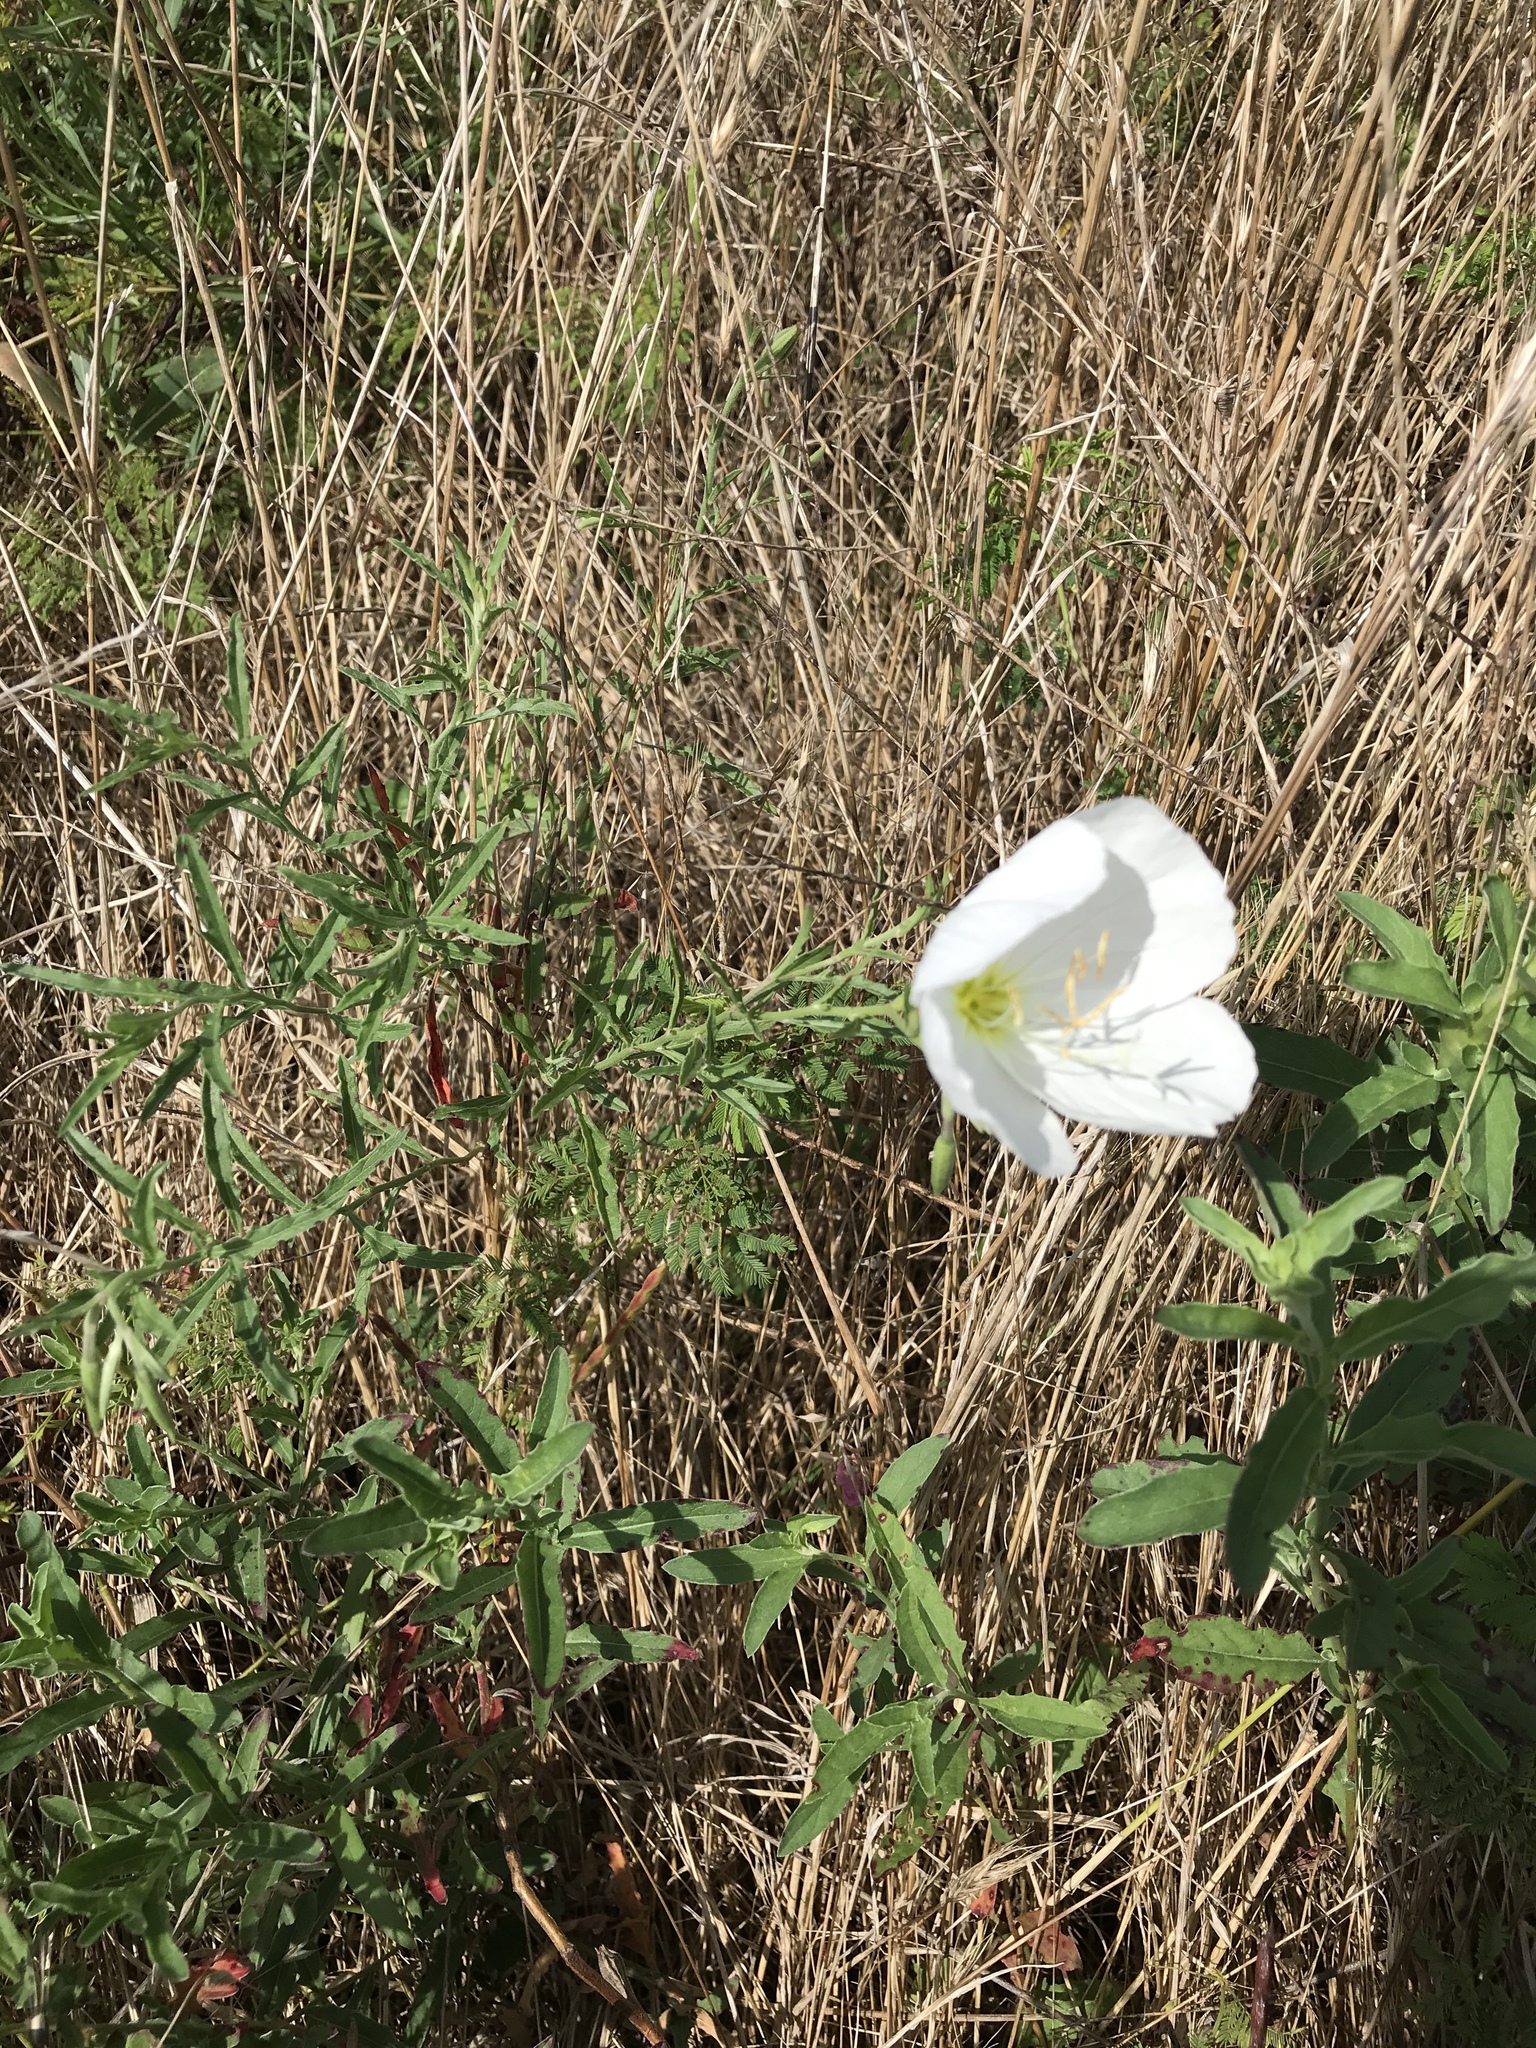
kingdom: Plantae
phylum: Tracheophyta
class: Magnoliopsida
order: Myrtales
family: Onagraceae
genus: Oenothera
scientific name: Oenothera speciosa
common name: White evening-primrose
